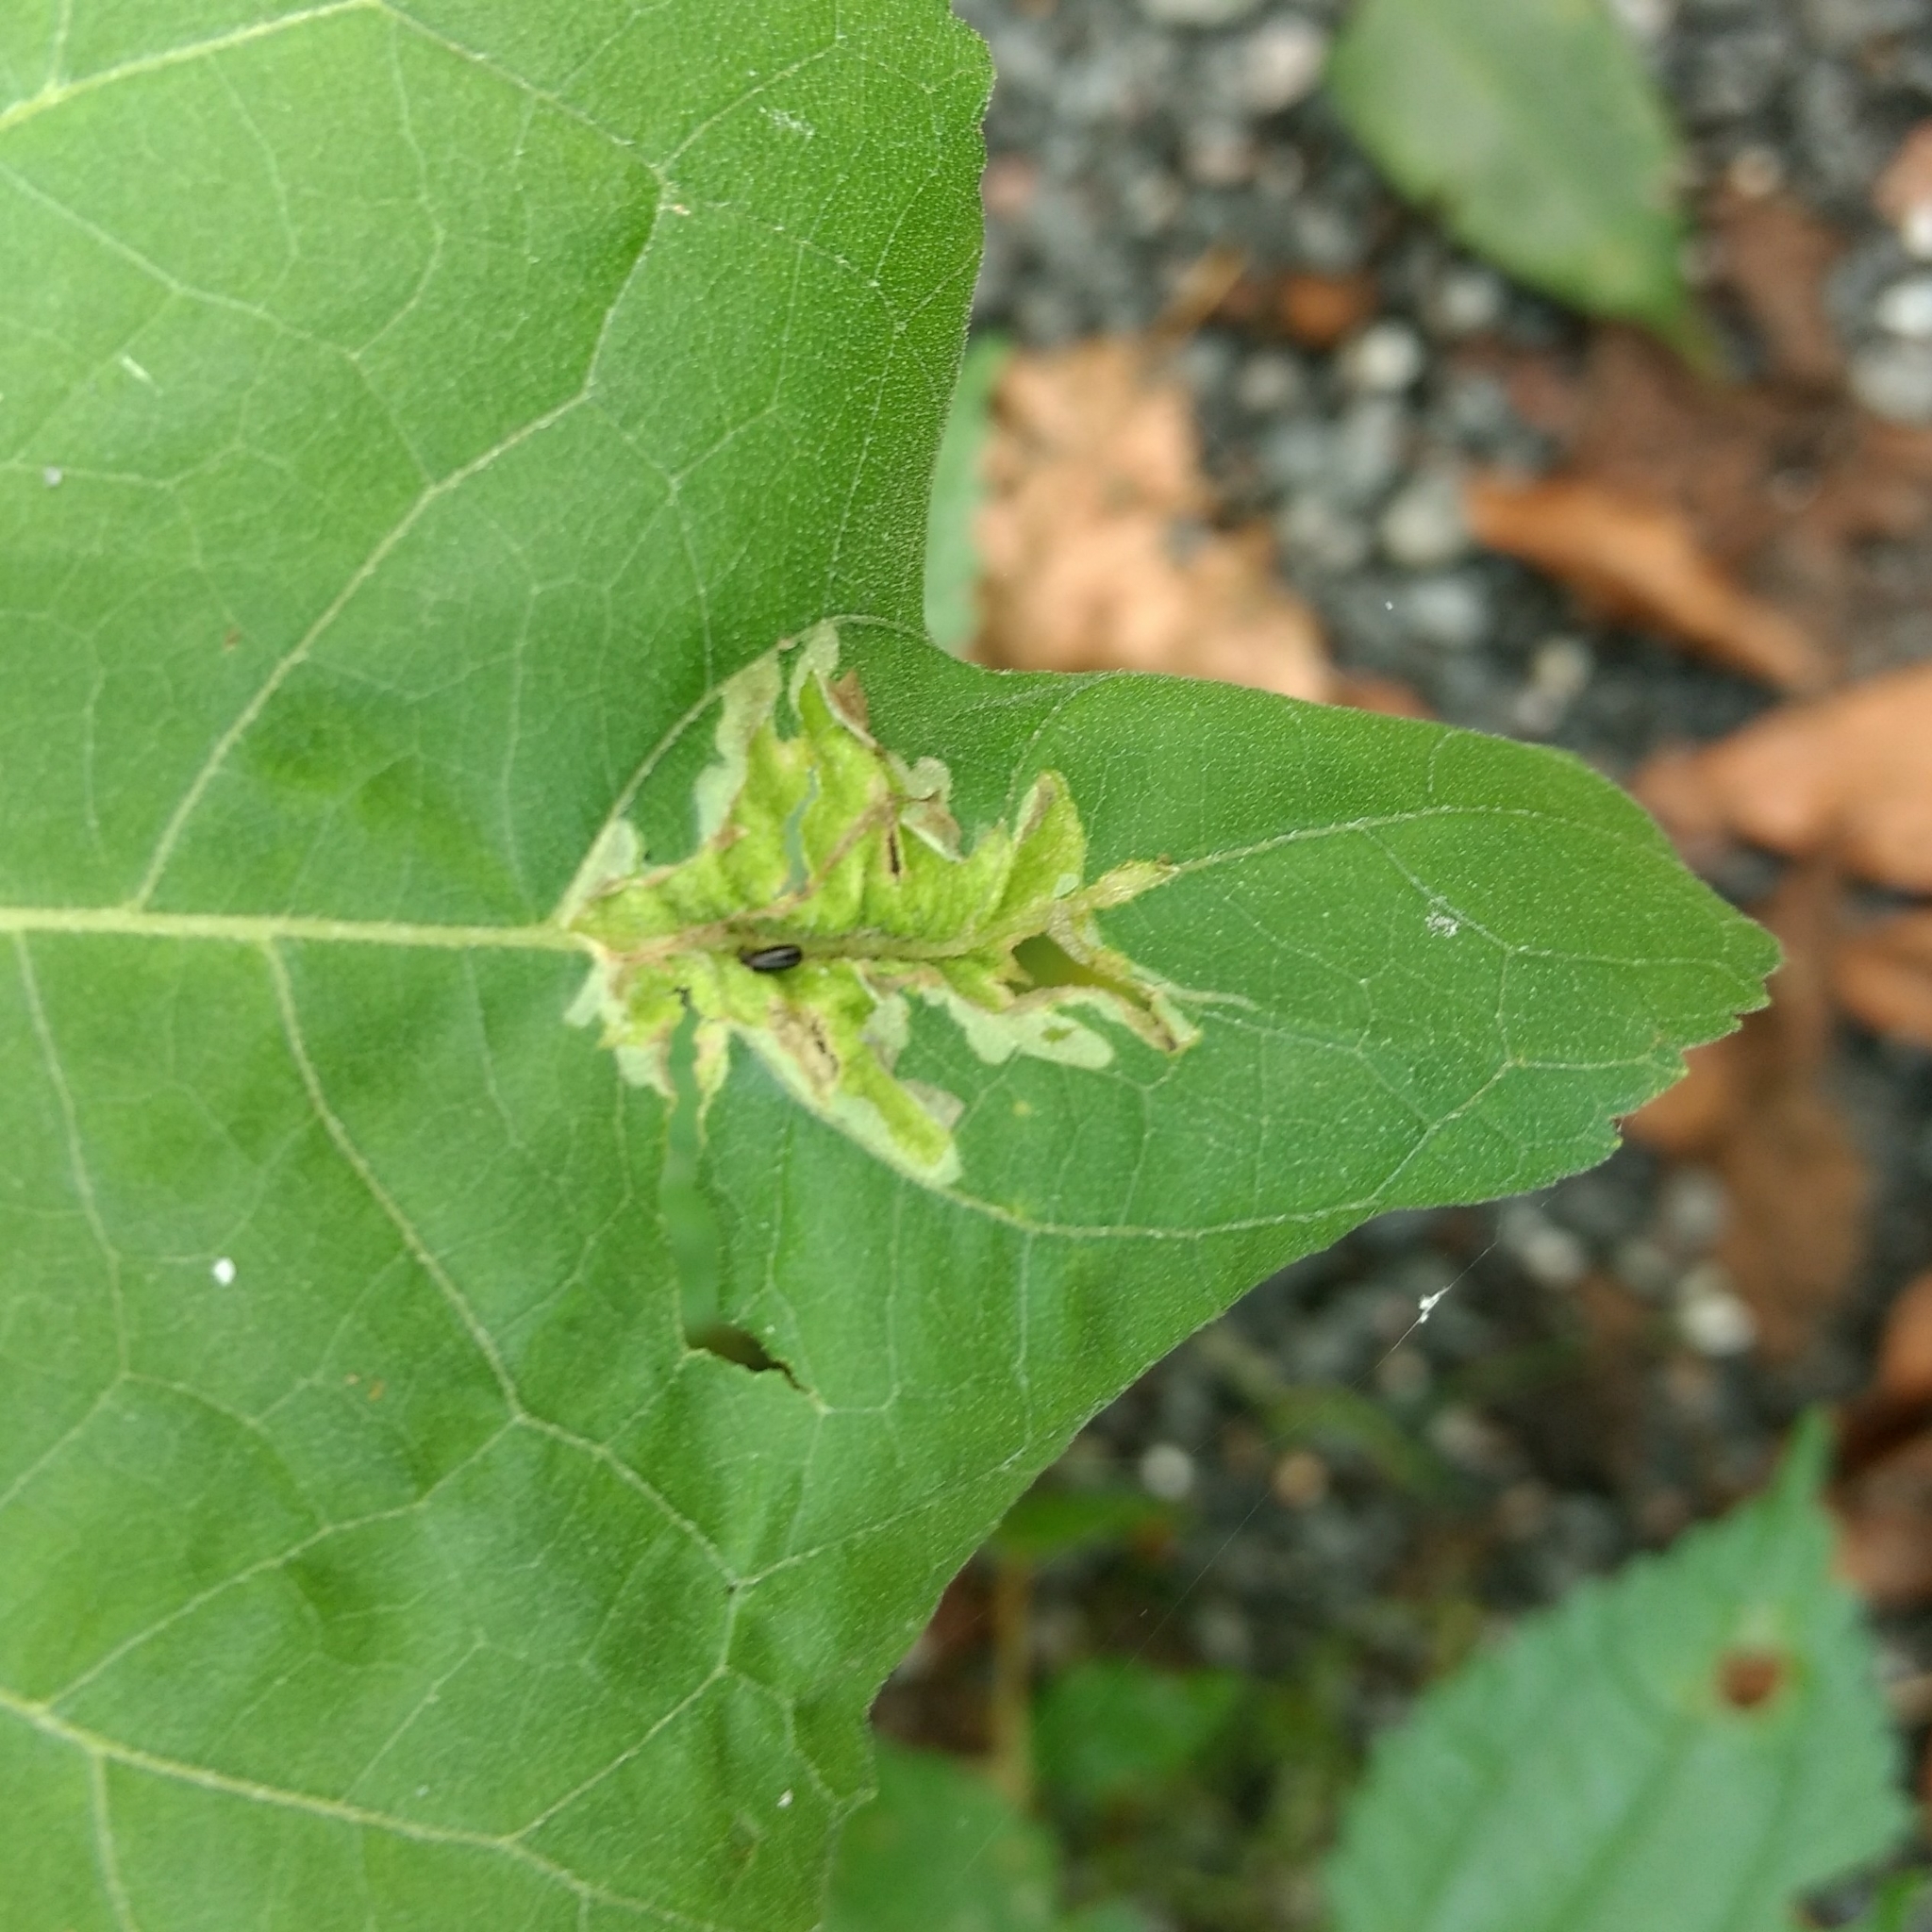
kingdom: Animalia
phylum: Arthropoda
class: Insecta
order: Diptera
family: Agromyzidae
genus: Calycomyza
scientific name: Calycomyza platyptera
